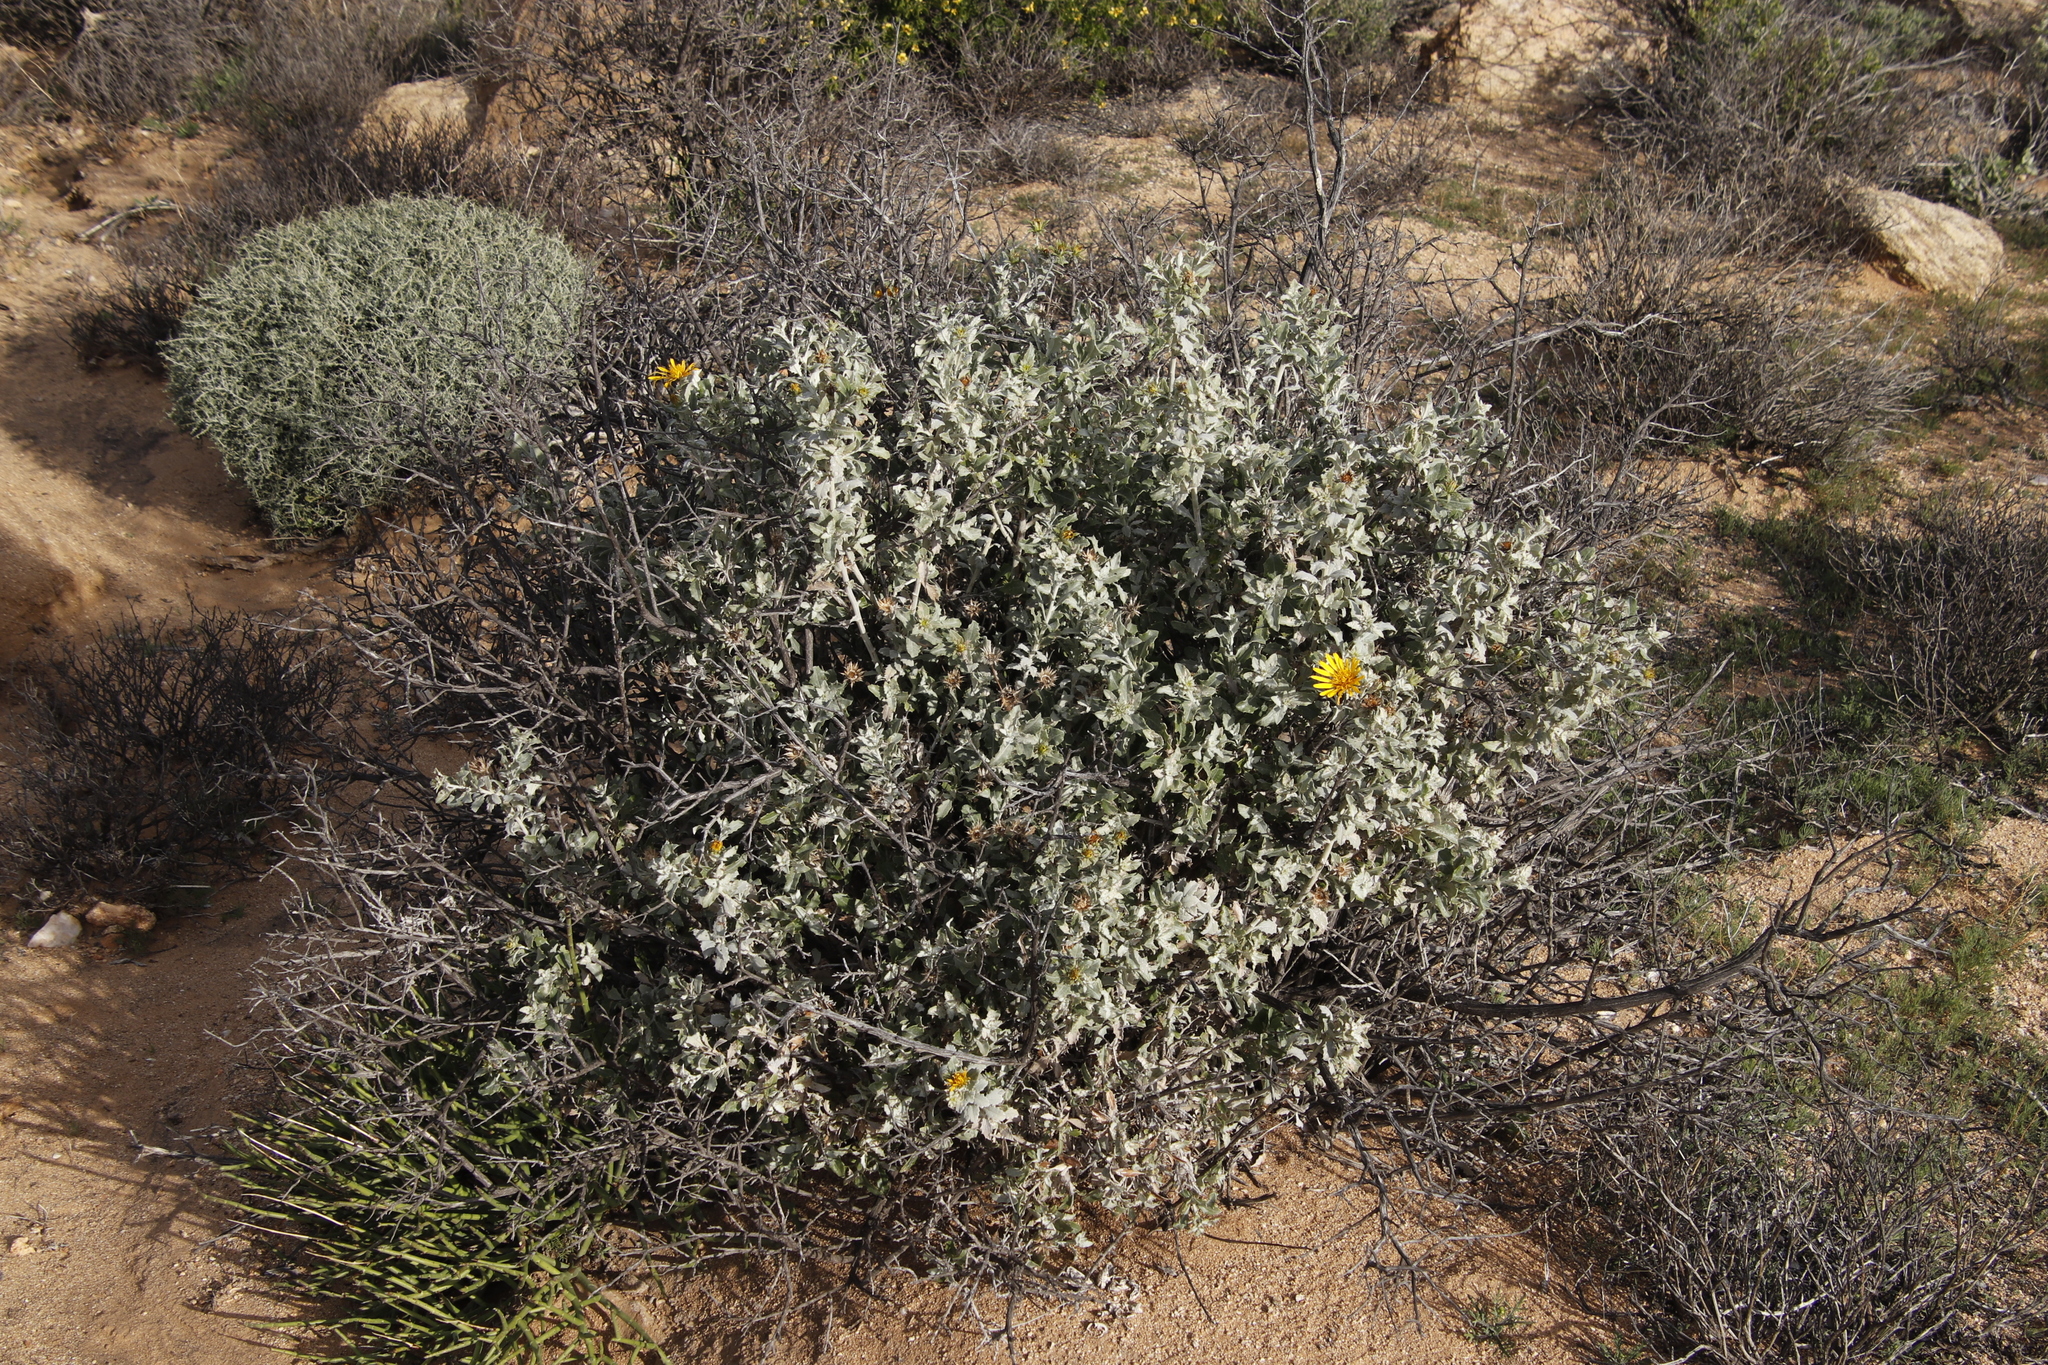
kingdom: Plantae
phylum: Tracheophyta
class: Magnoliopsida
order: Asterales
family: Asteraceae
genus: Berkheya
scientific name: Berkheya fruticosa
